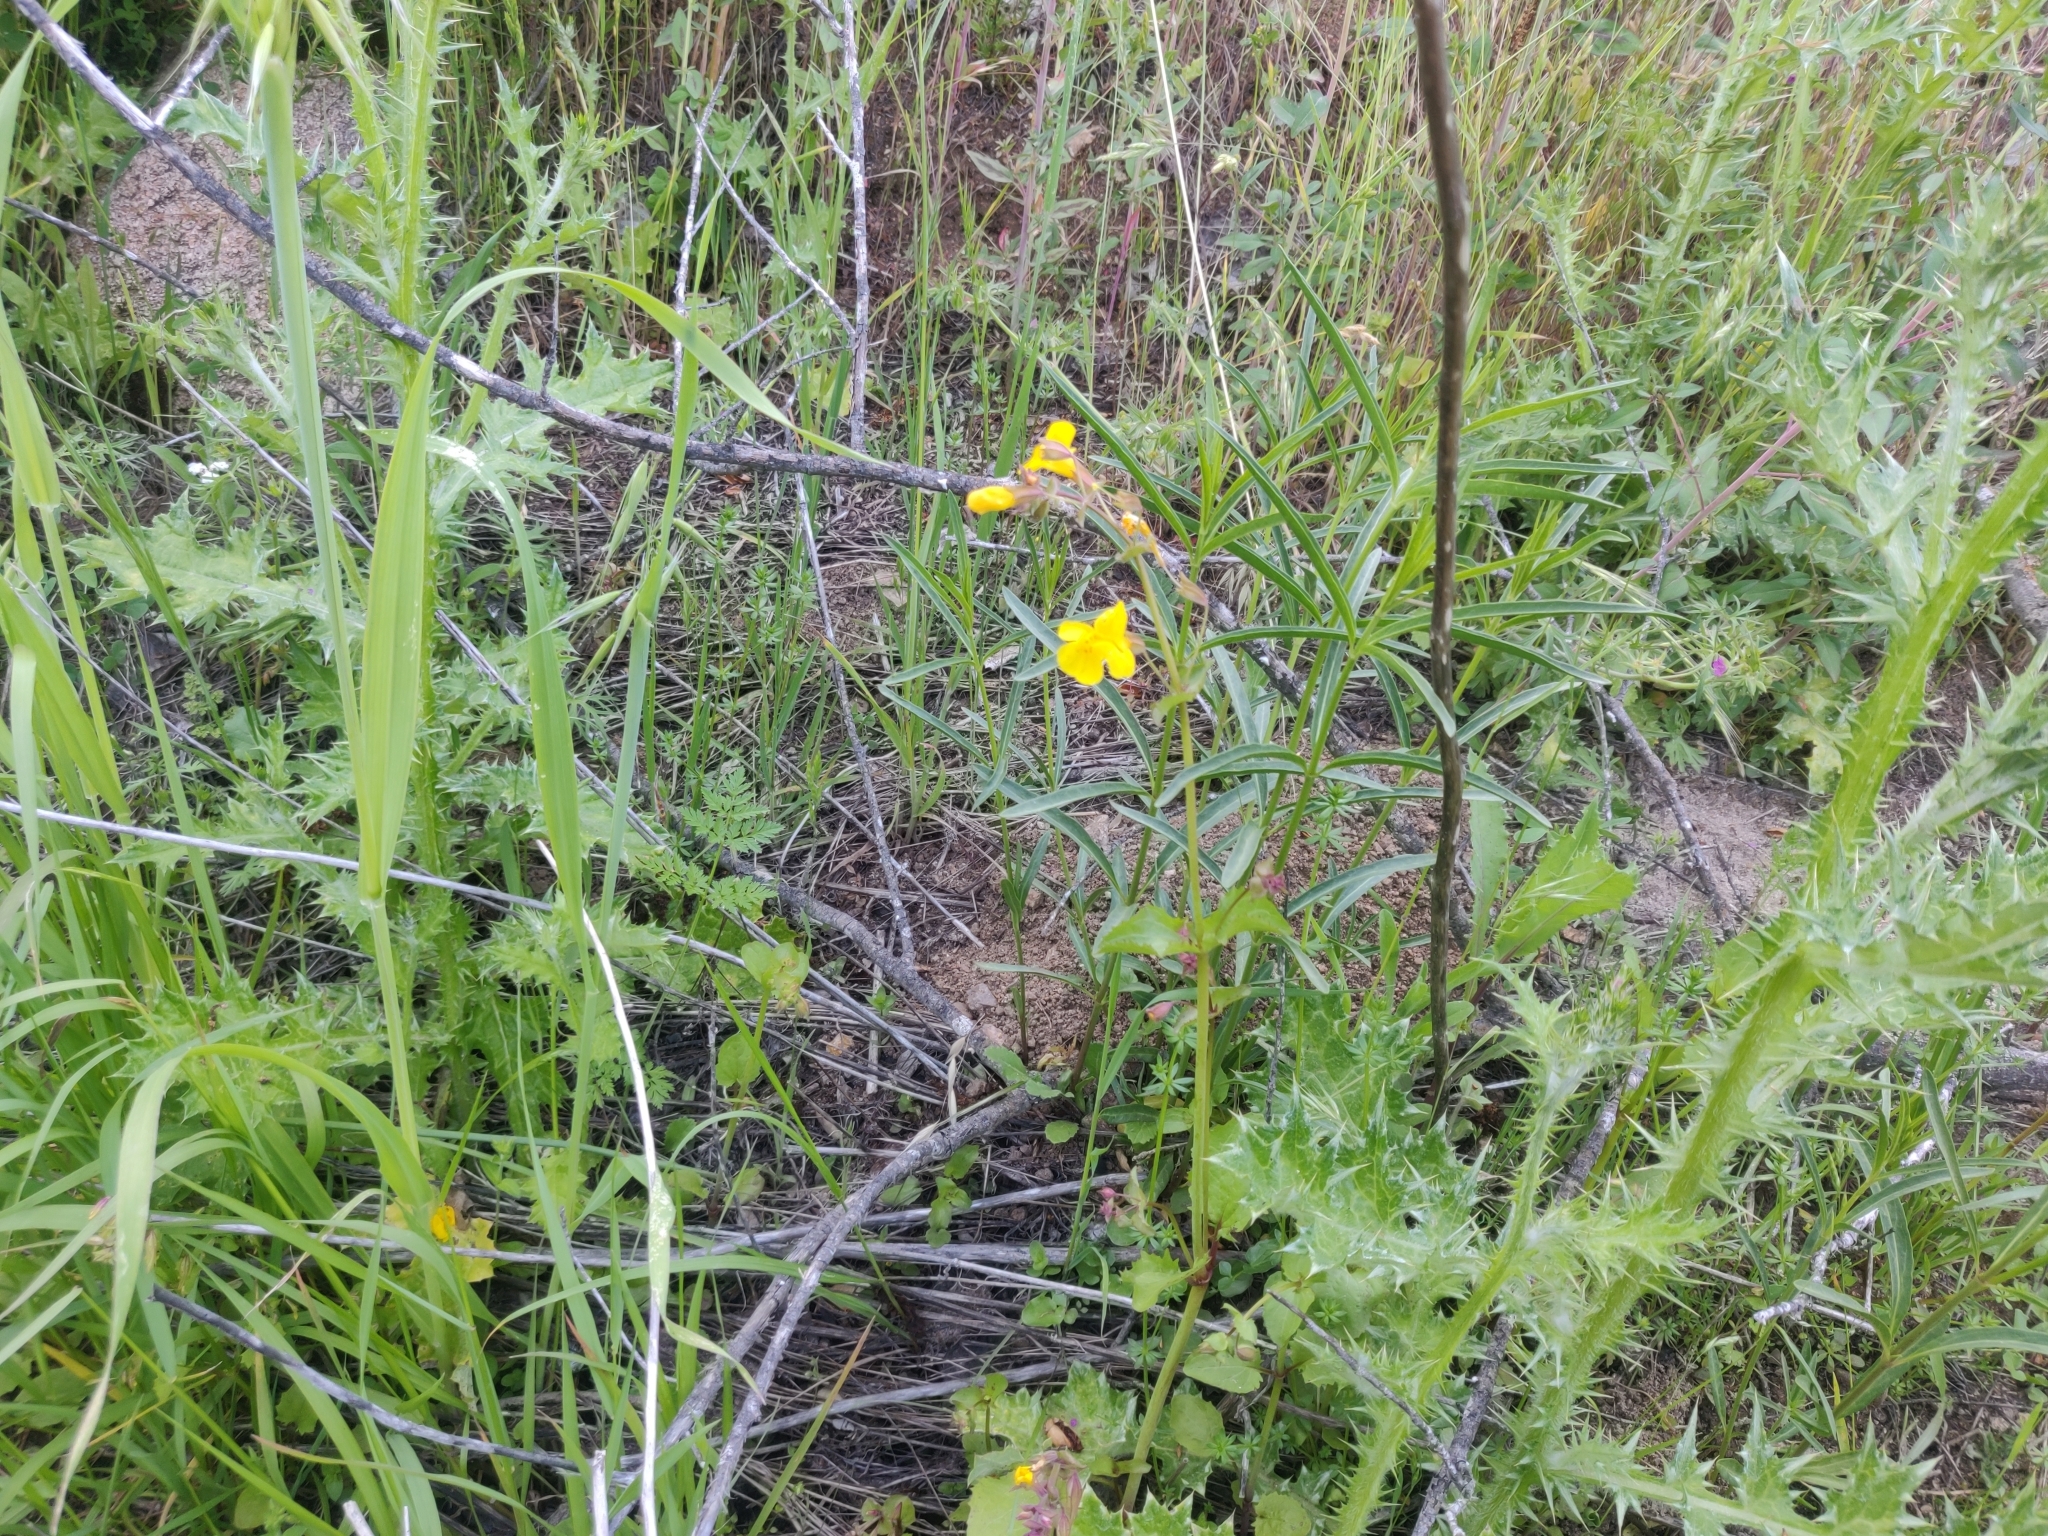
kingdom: Plantae
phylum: Tracheophyta
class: Magnoliopsida
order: Lamiales
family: Phrymaceae
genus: Erythranthe
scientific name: Erythranthe guttata
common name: Monkeyflower
